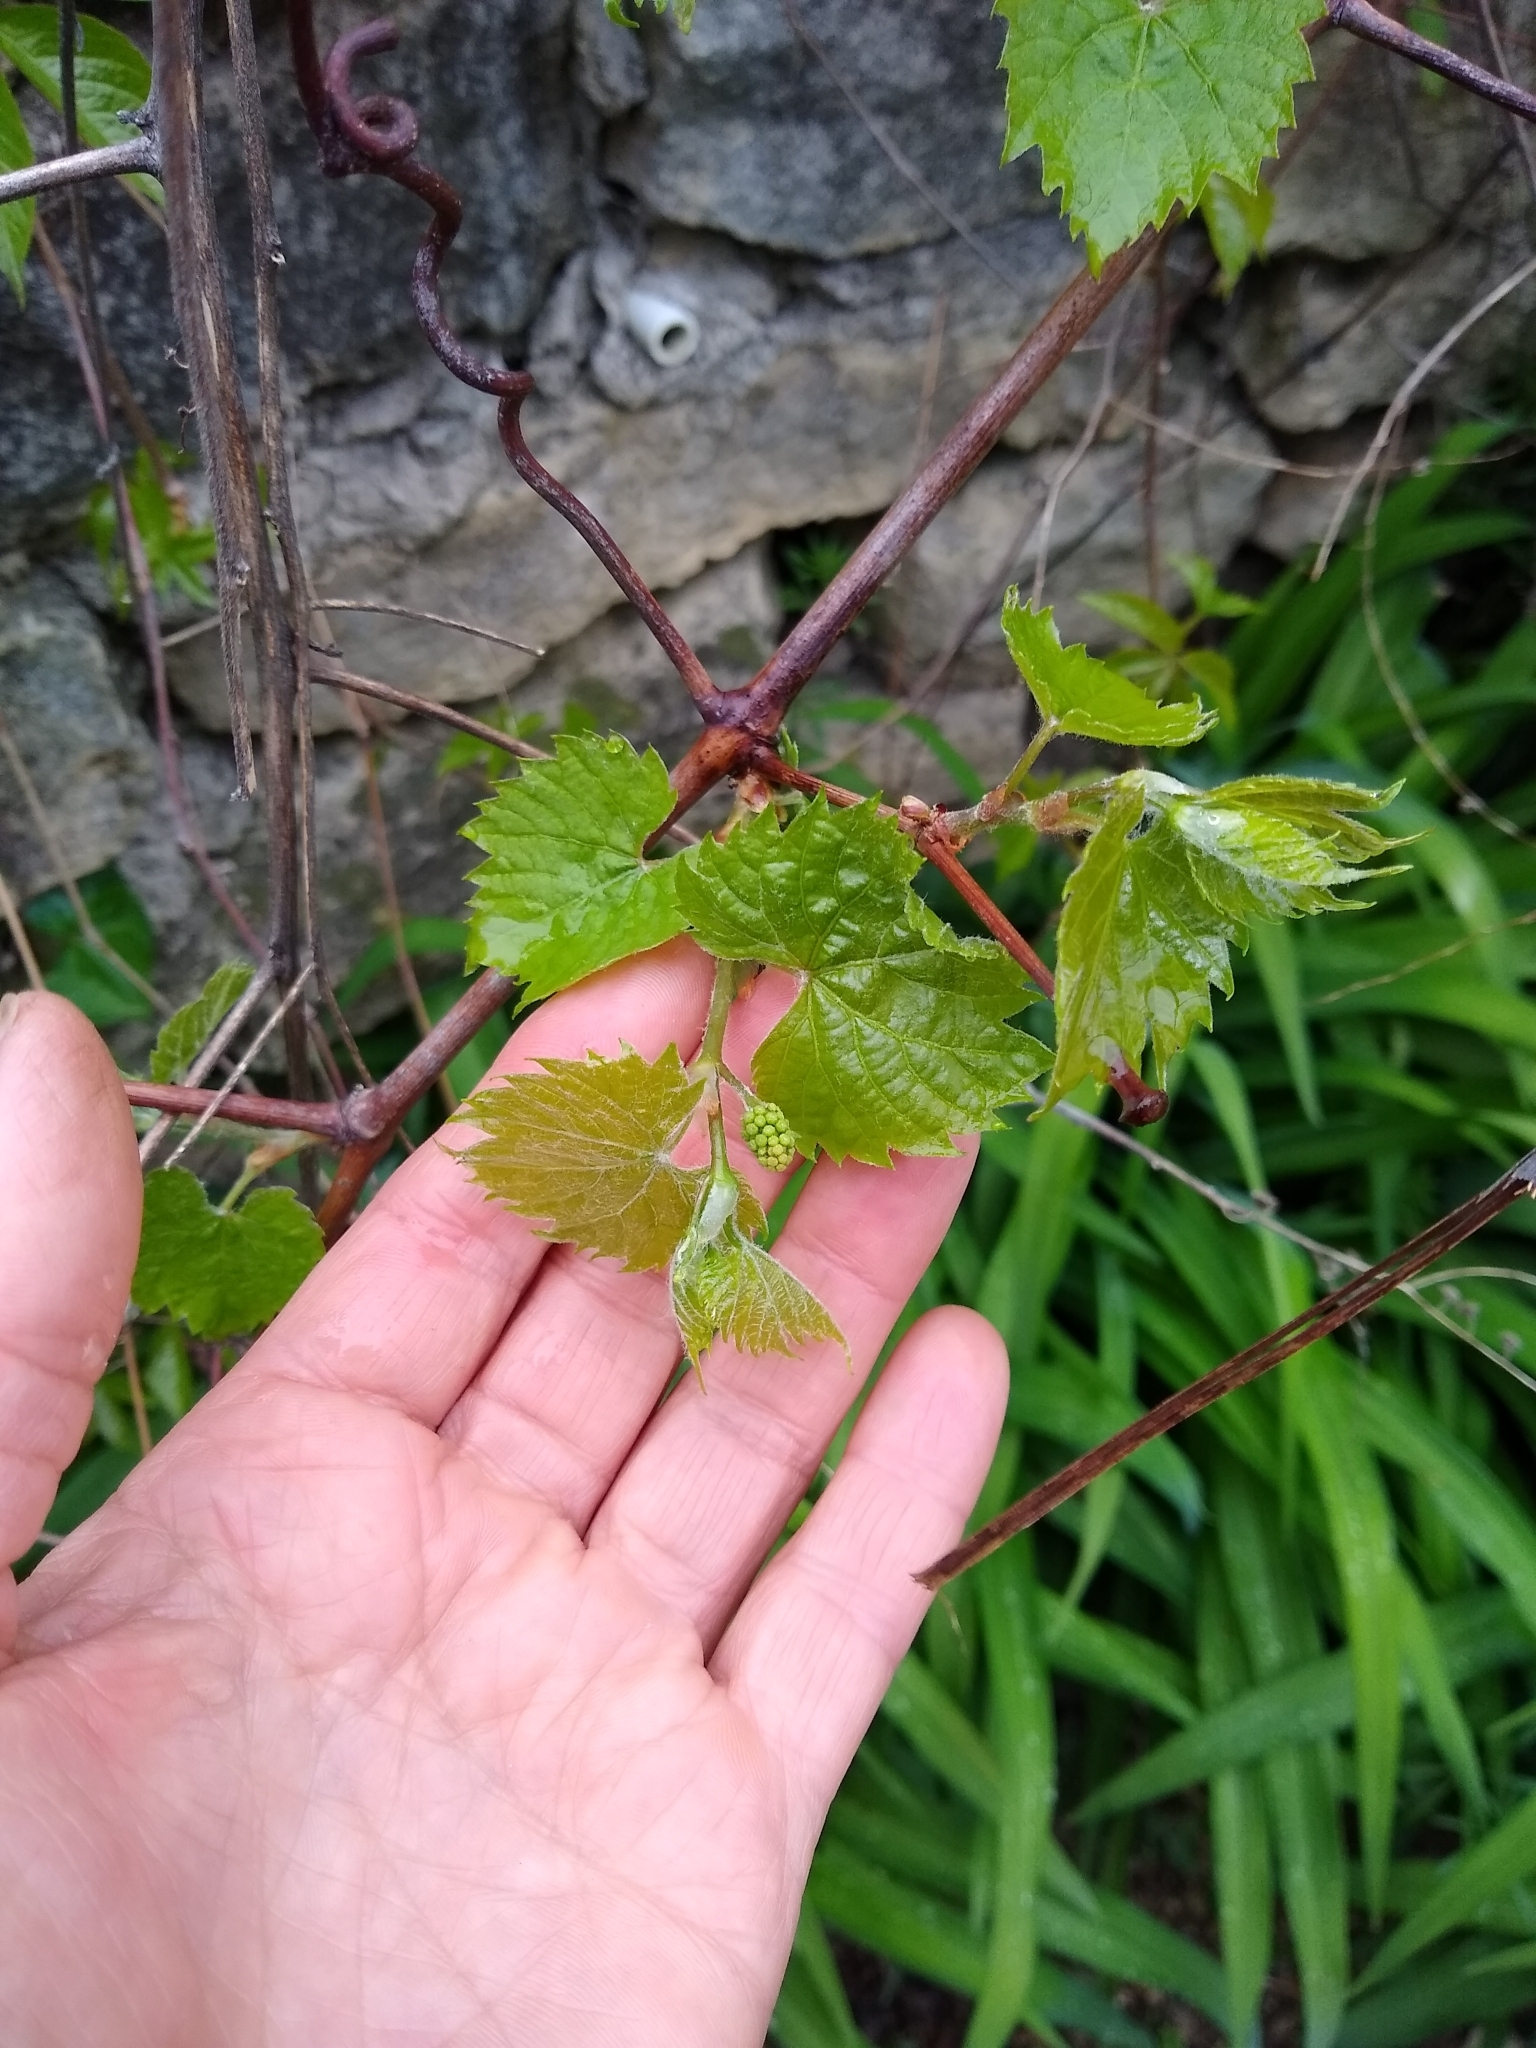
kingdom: Plantae
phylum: Tracheophyta
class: Magnoliopsida
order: Vitales
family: Vitaceae
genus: Vitis
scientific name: Vitis riparia
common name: Frost grape
